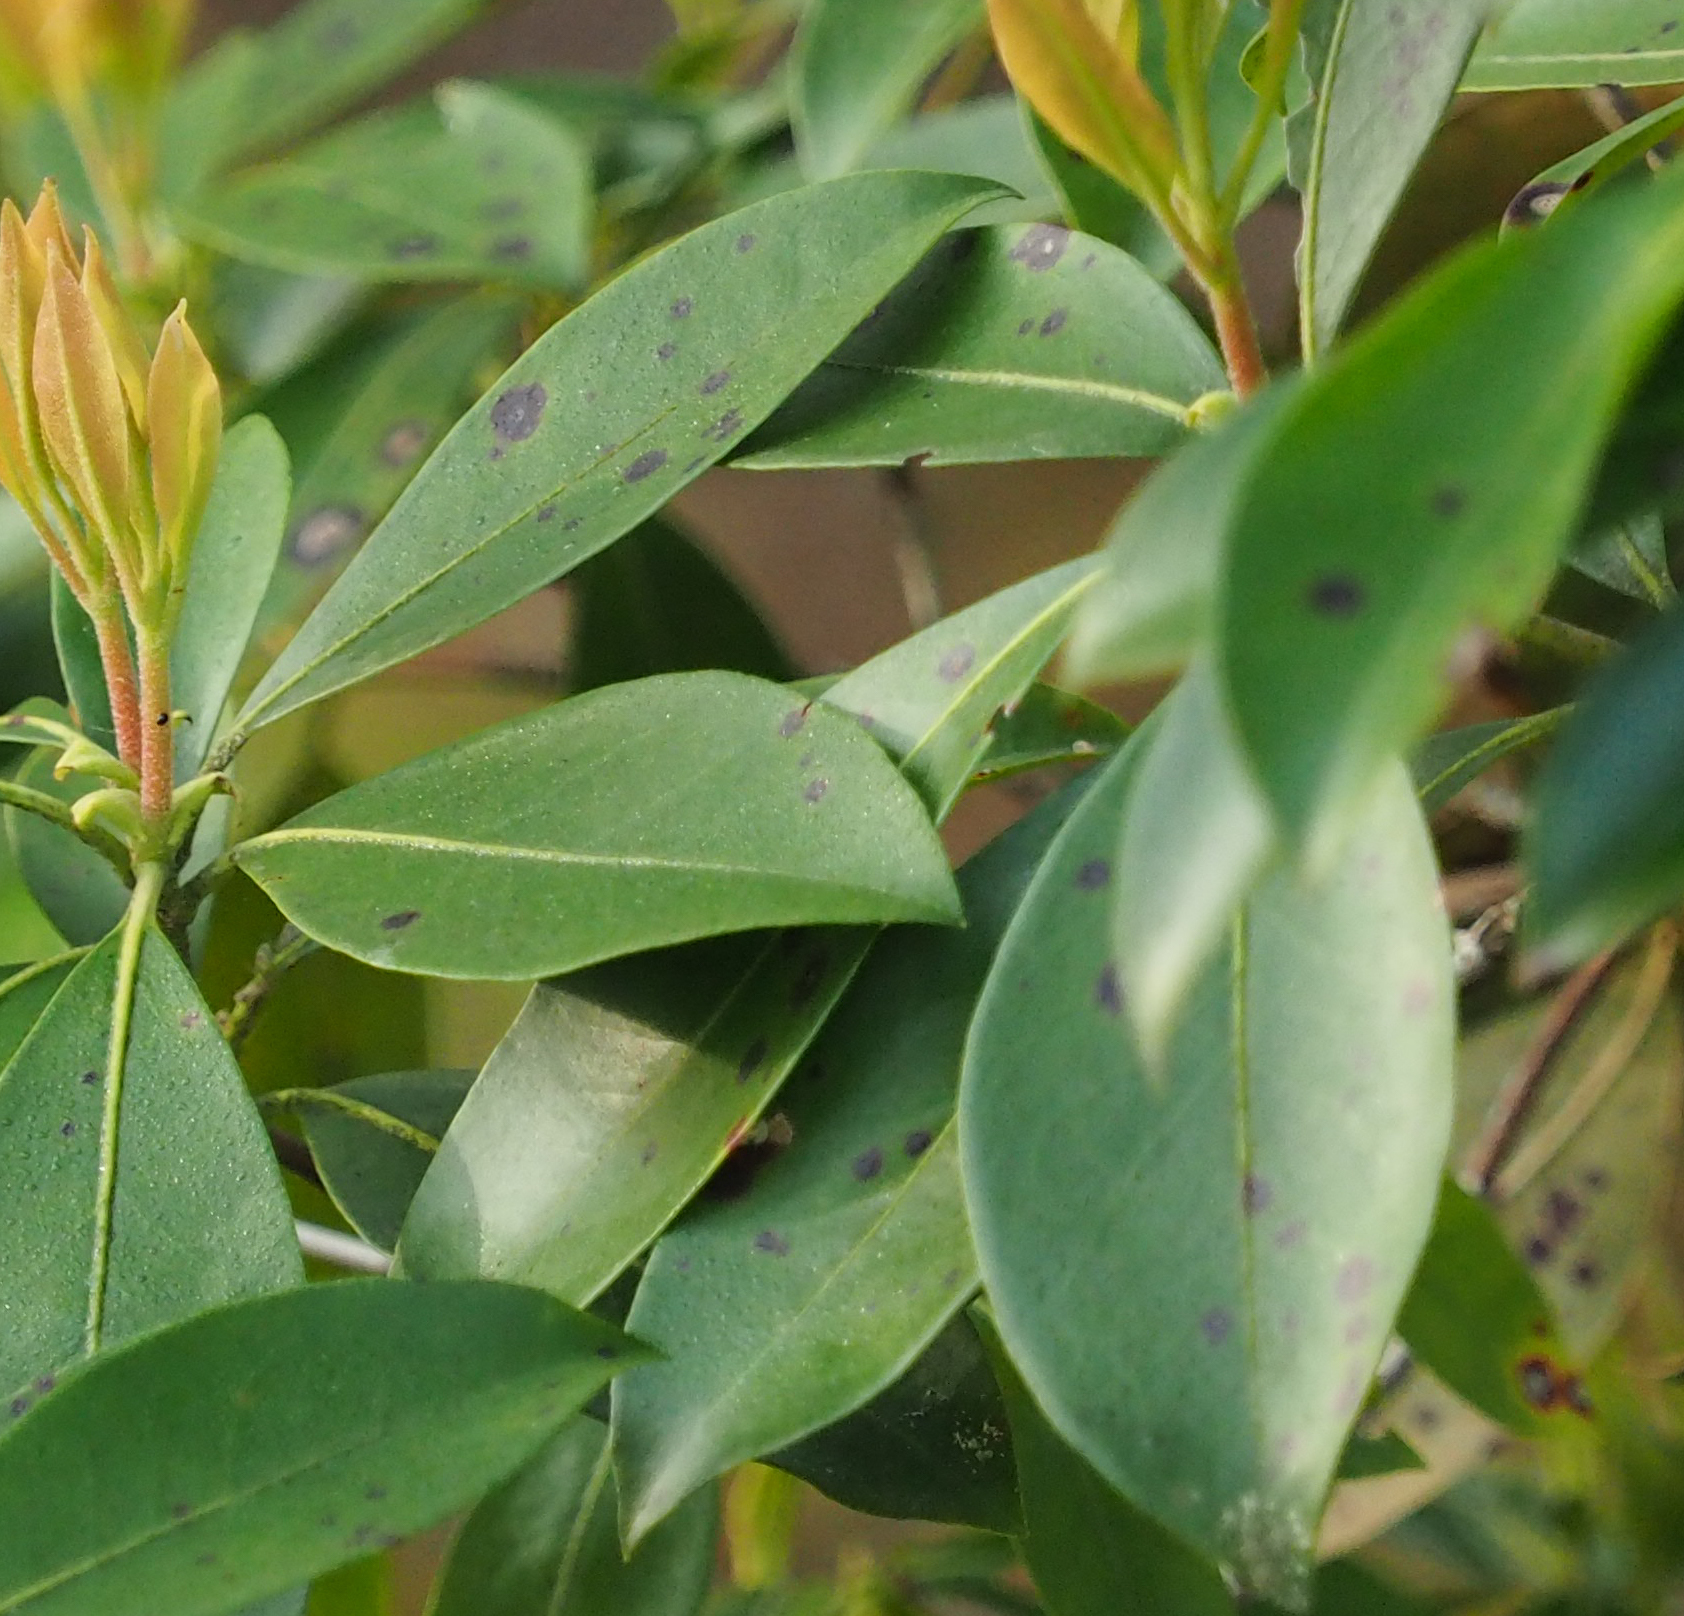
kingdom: Plantae
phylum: Tracheophyta
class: Magnoliopsida
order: Ericales
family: Ericaceae
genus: Kalmia
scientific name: Kalmia latifolia
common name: Mountain-laurel
